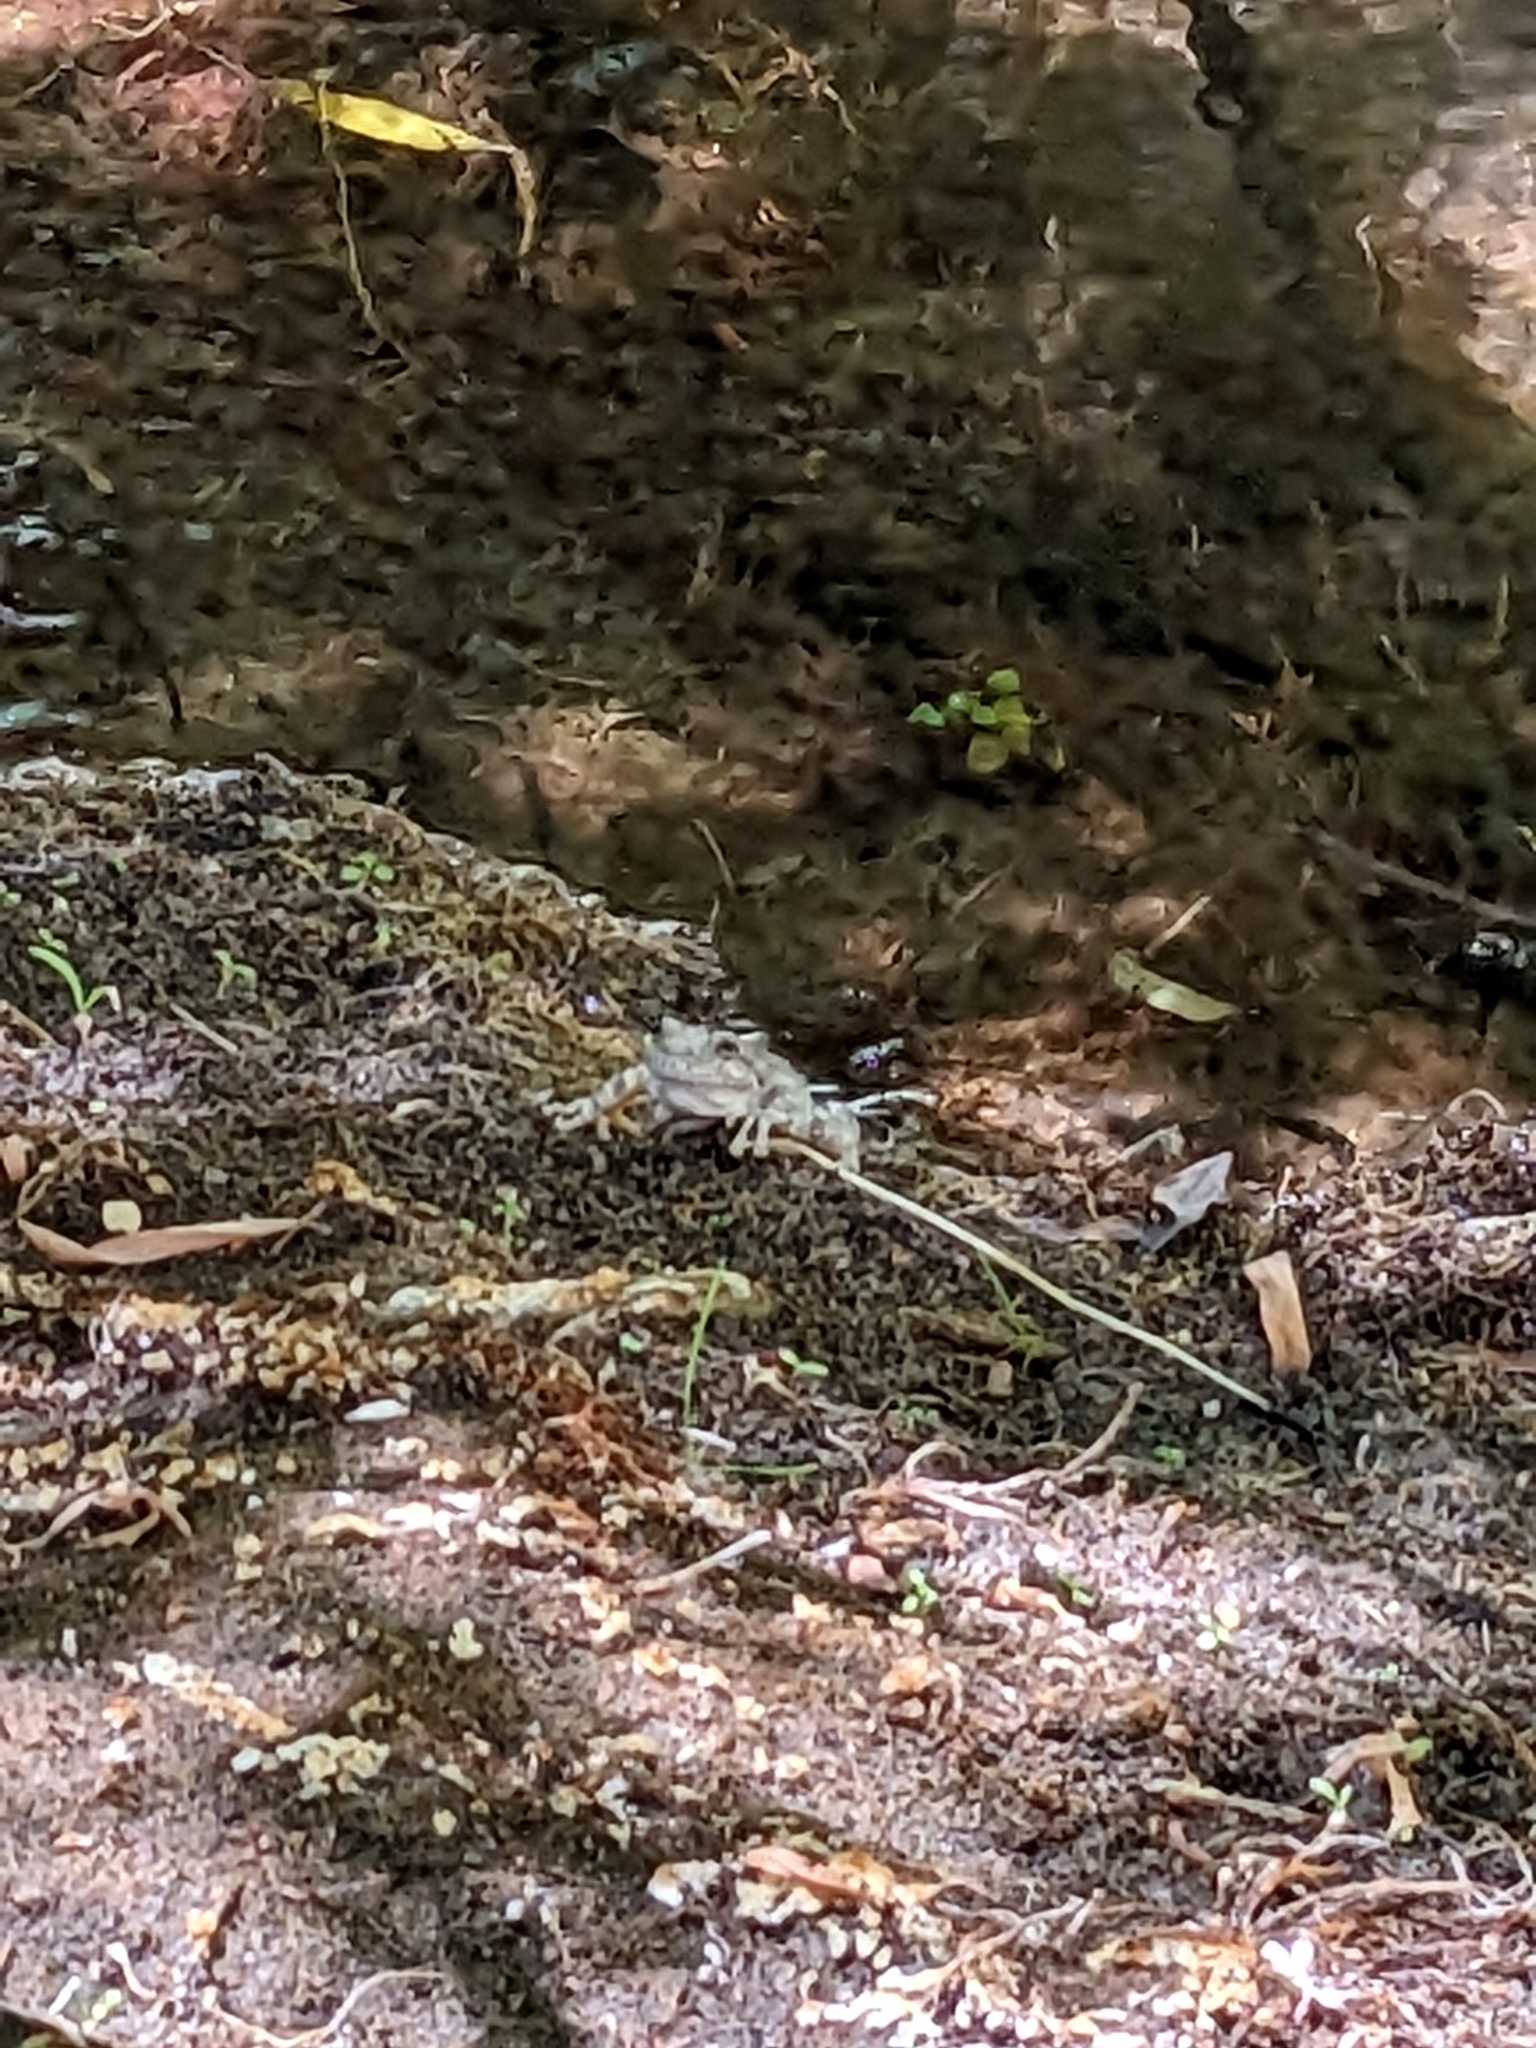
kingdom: Animalia
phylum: Chordata
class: Amphibia
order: Anura
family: Hylidae
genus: Dryophytes
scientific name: Dryophytes arenicolor
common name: Canyon treefrog
